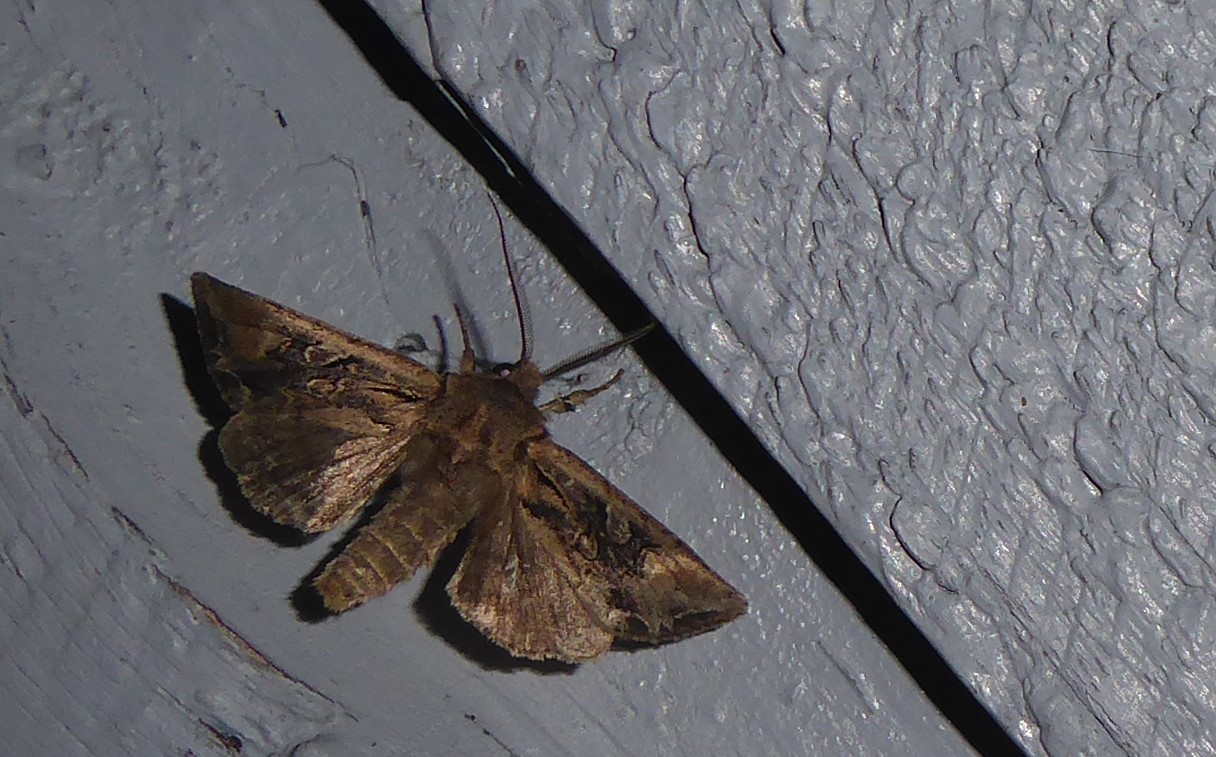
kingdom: Animalia
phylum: Arthropoda
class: Insecta
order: Lepidoptera
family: Noctuidae
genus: Ichneutica
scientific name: Ichneutica
